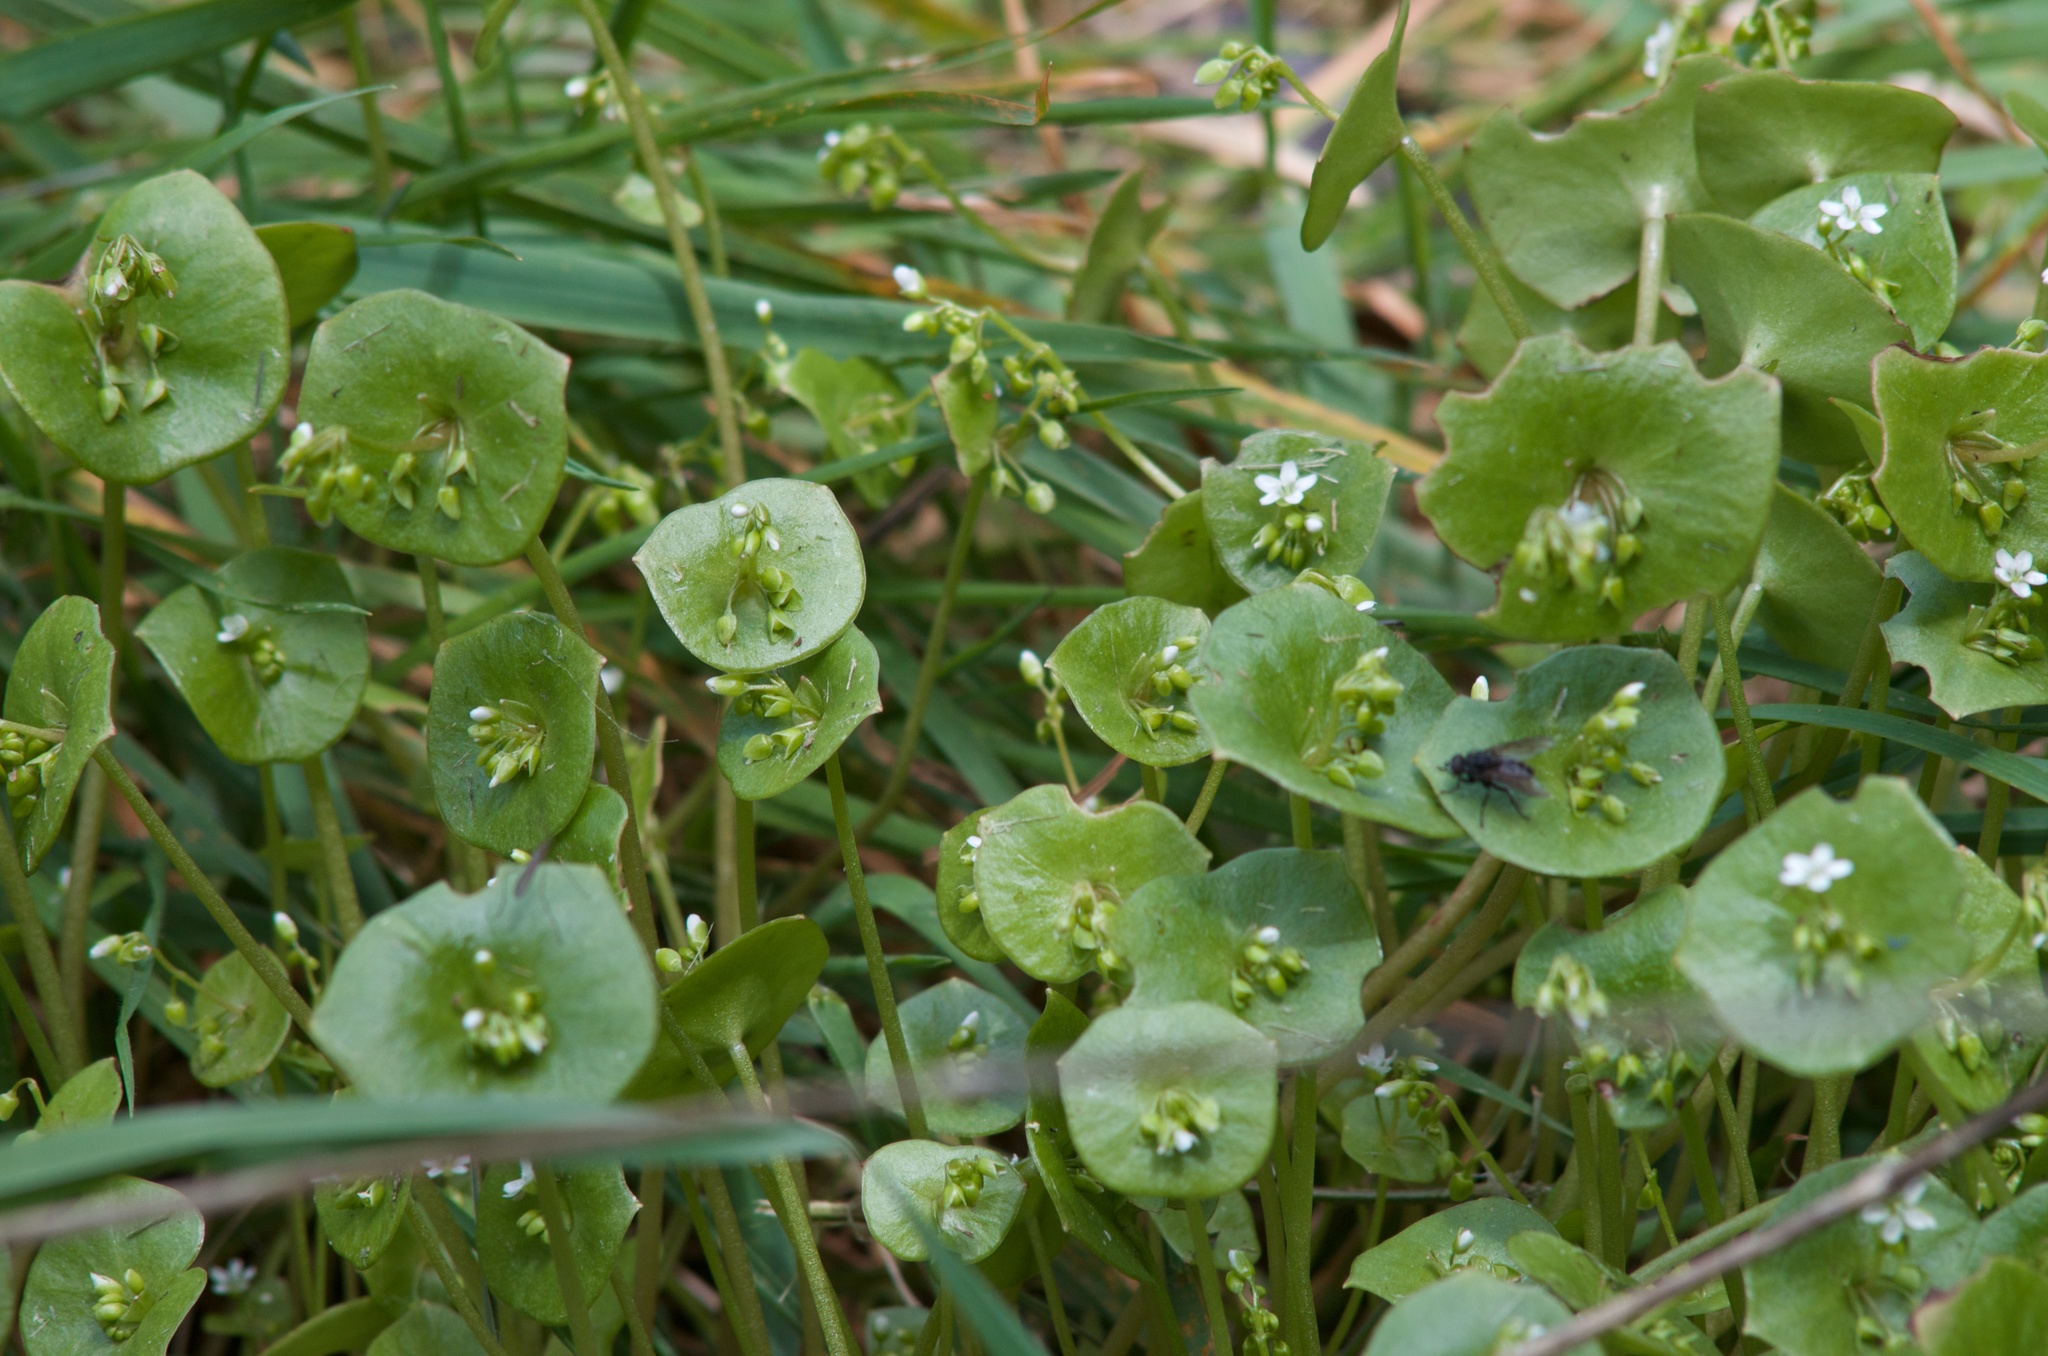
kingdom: Plantae
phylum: Tracheophyta
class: Magnoliopsida
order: Caryophyllales
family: Montiaceae
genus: Claytonia
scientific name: Claytonia perfoliata
